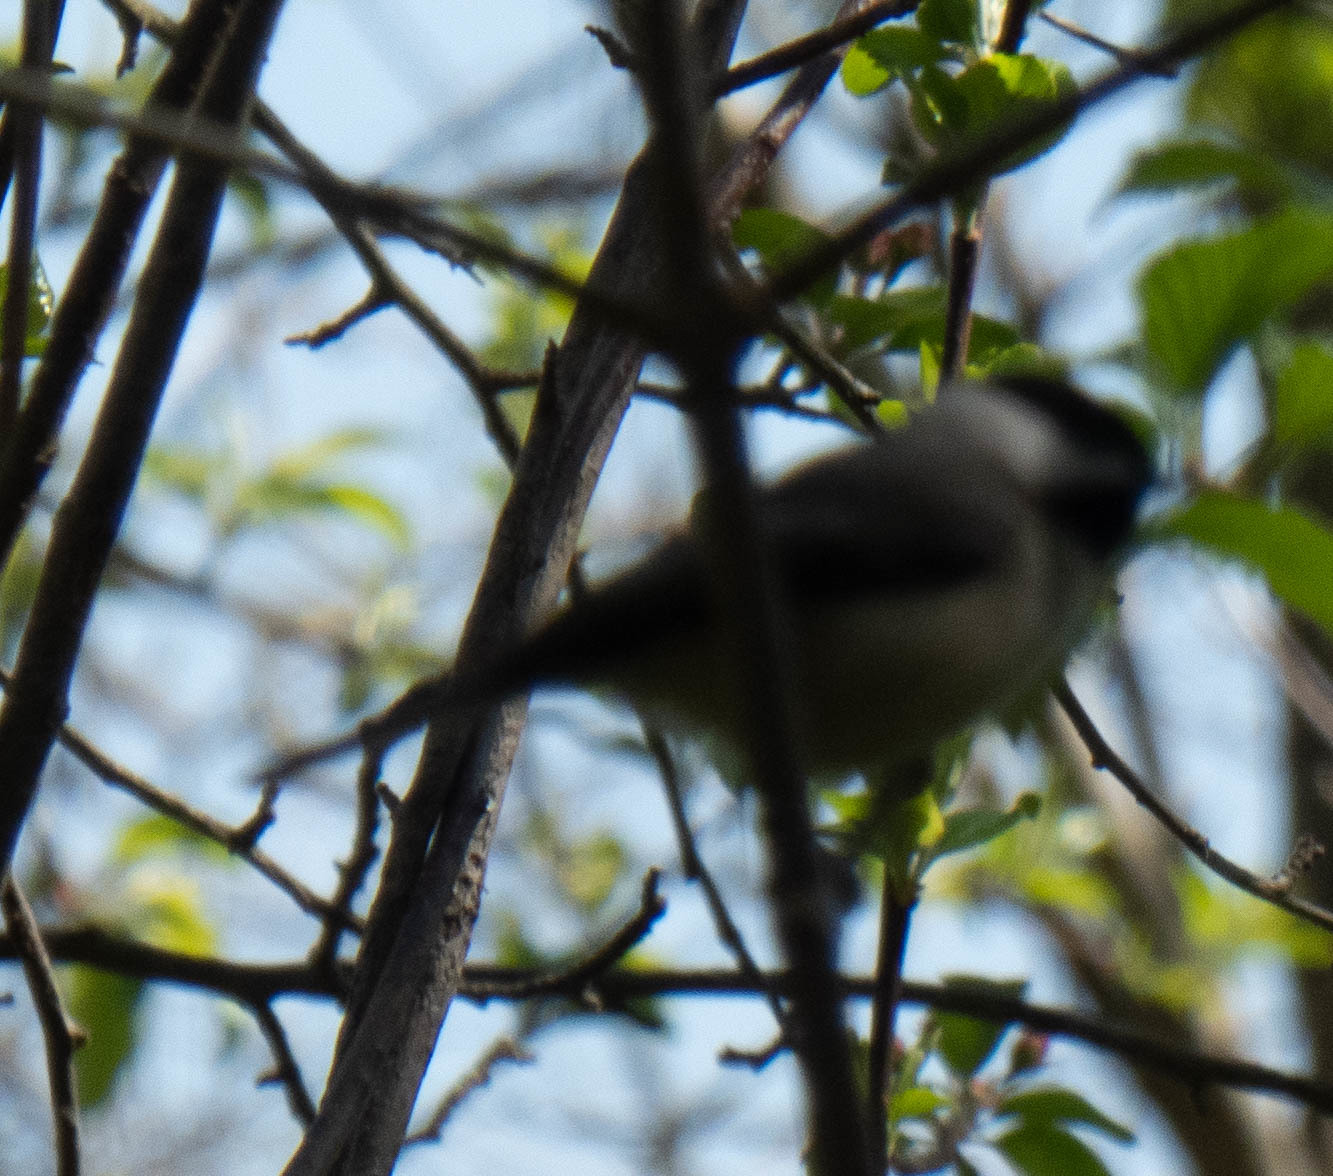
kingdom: Animalia
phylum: Chordata
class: Aves
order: Passeriformes
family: Paridae
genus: Poecile
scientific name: Poecile carolinensis
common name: Carolina chickadee
